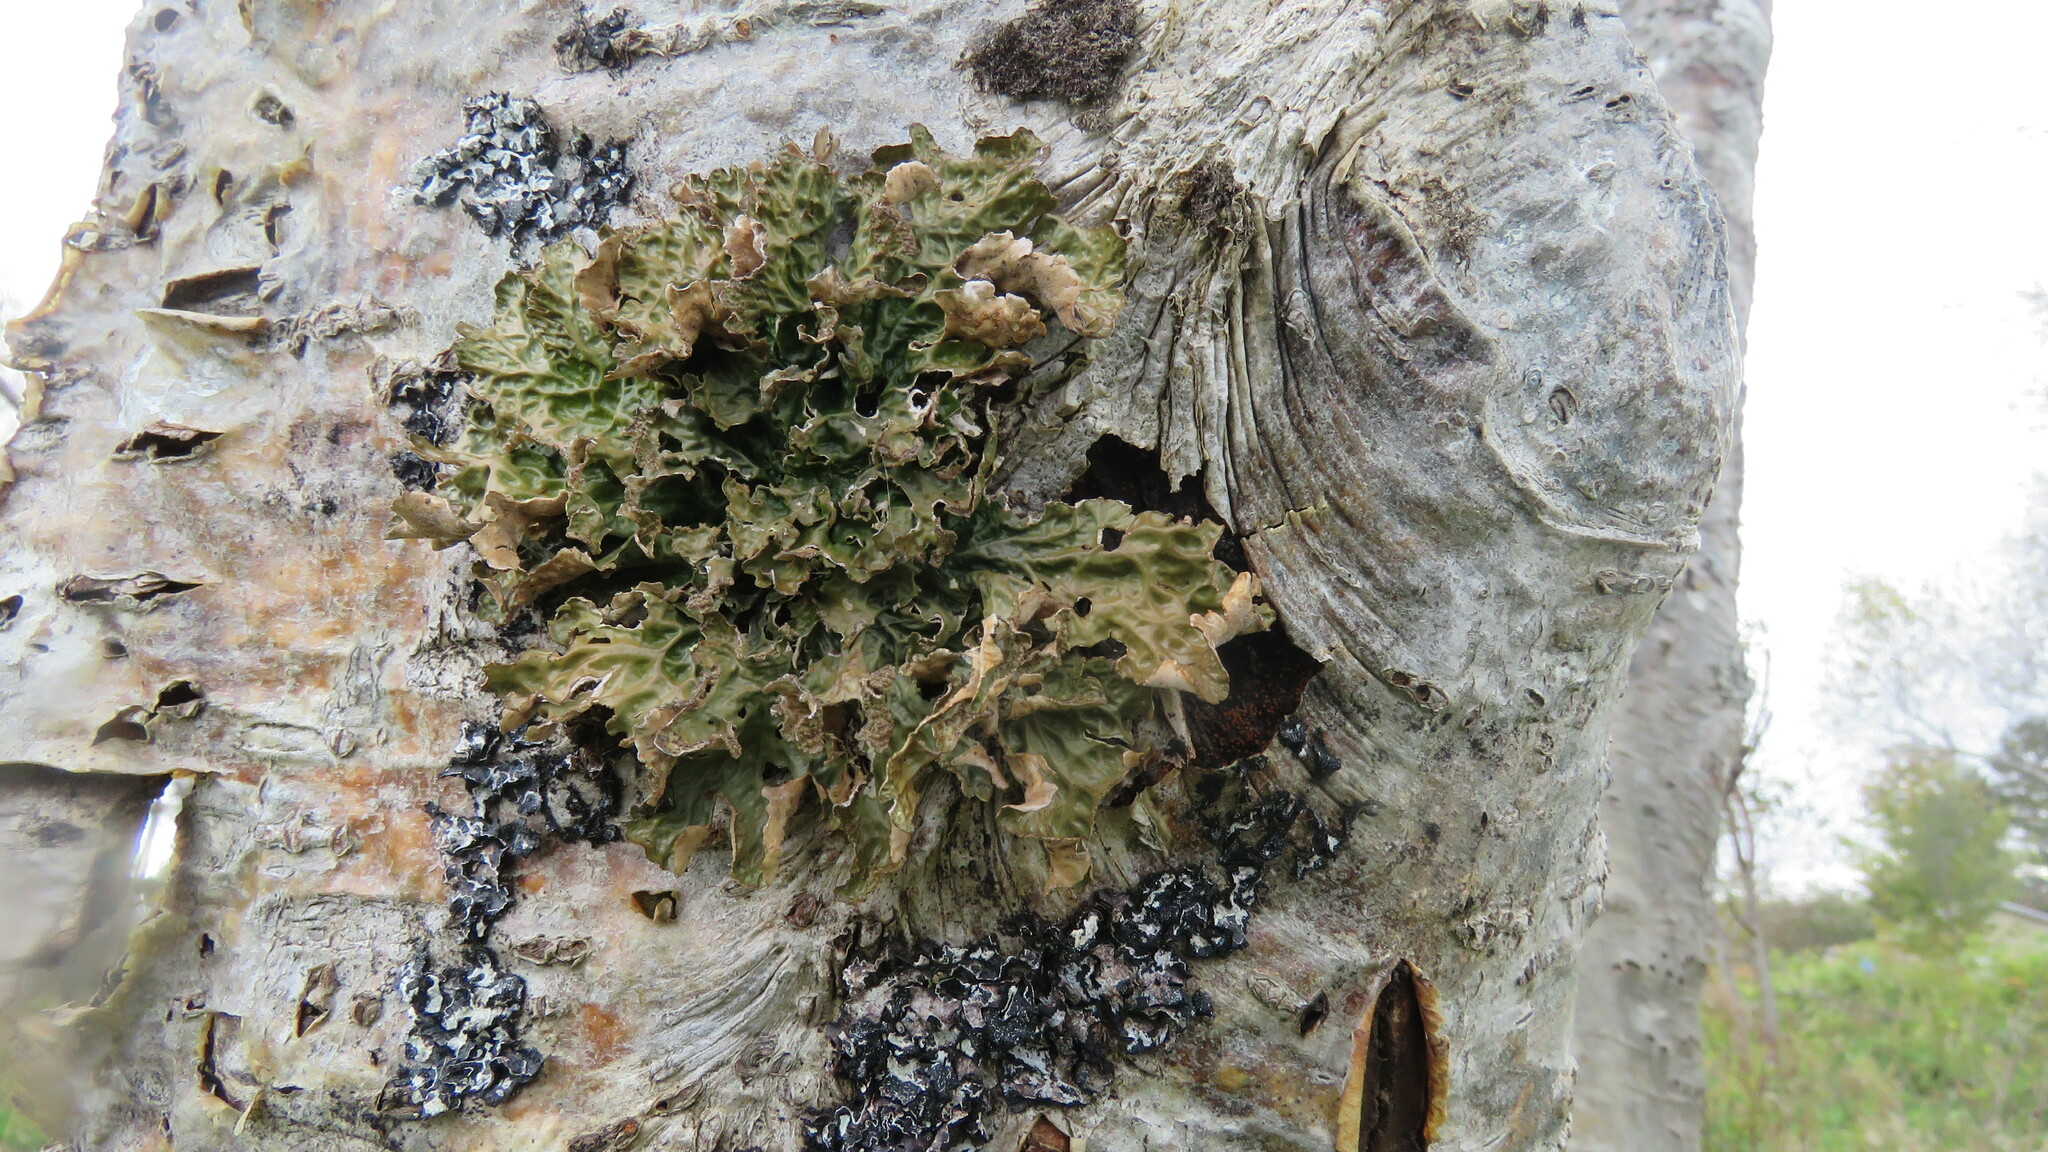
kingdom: Fungi
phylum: Ascomycota
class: Lecanoromycetes
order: Peltigerales
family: Lobariaceae
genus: Lobaria
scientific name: Lobaria pulmonaria
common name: Lungwort
